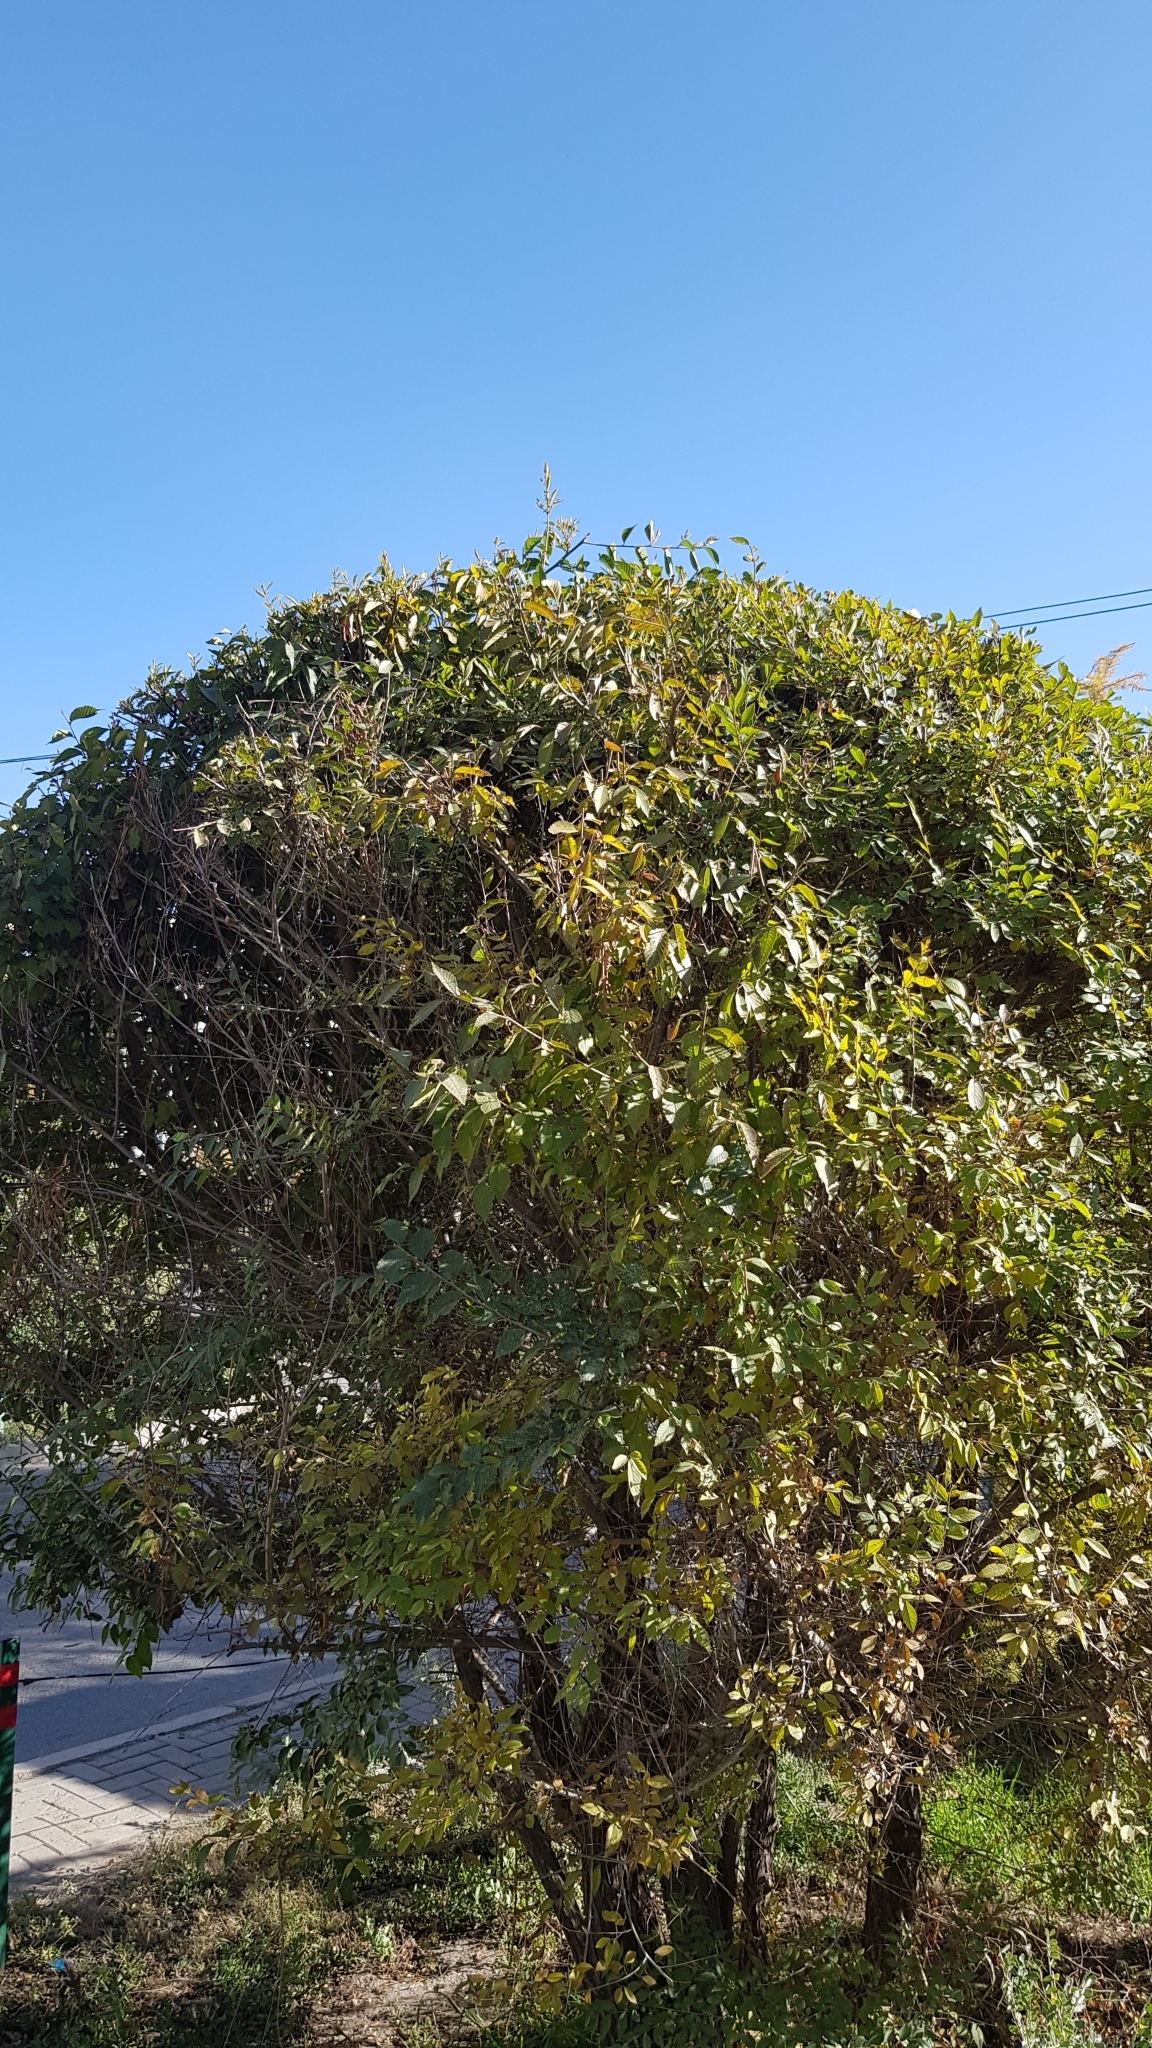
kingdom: Plantae
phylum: Tracheophyta
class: Magnoliopsida
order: Rosales
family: Ulmaceae
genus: Ulmus
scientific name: Ulmus pumila
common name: Siberian elm
